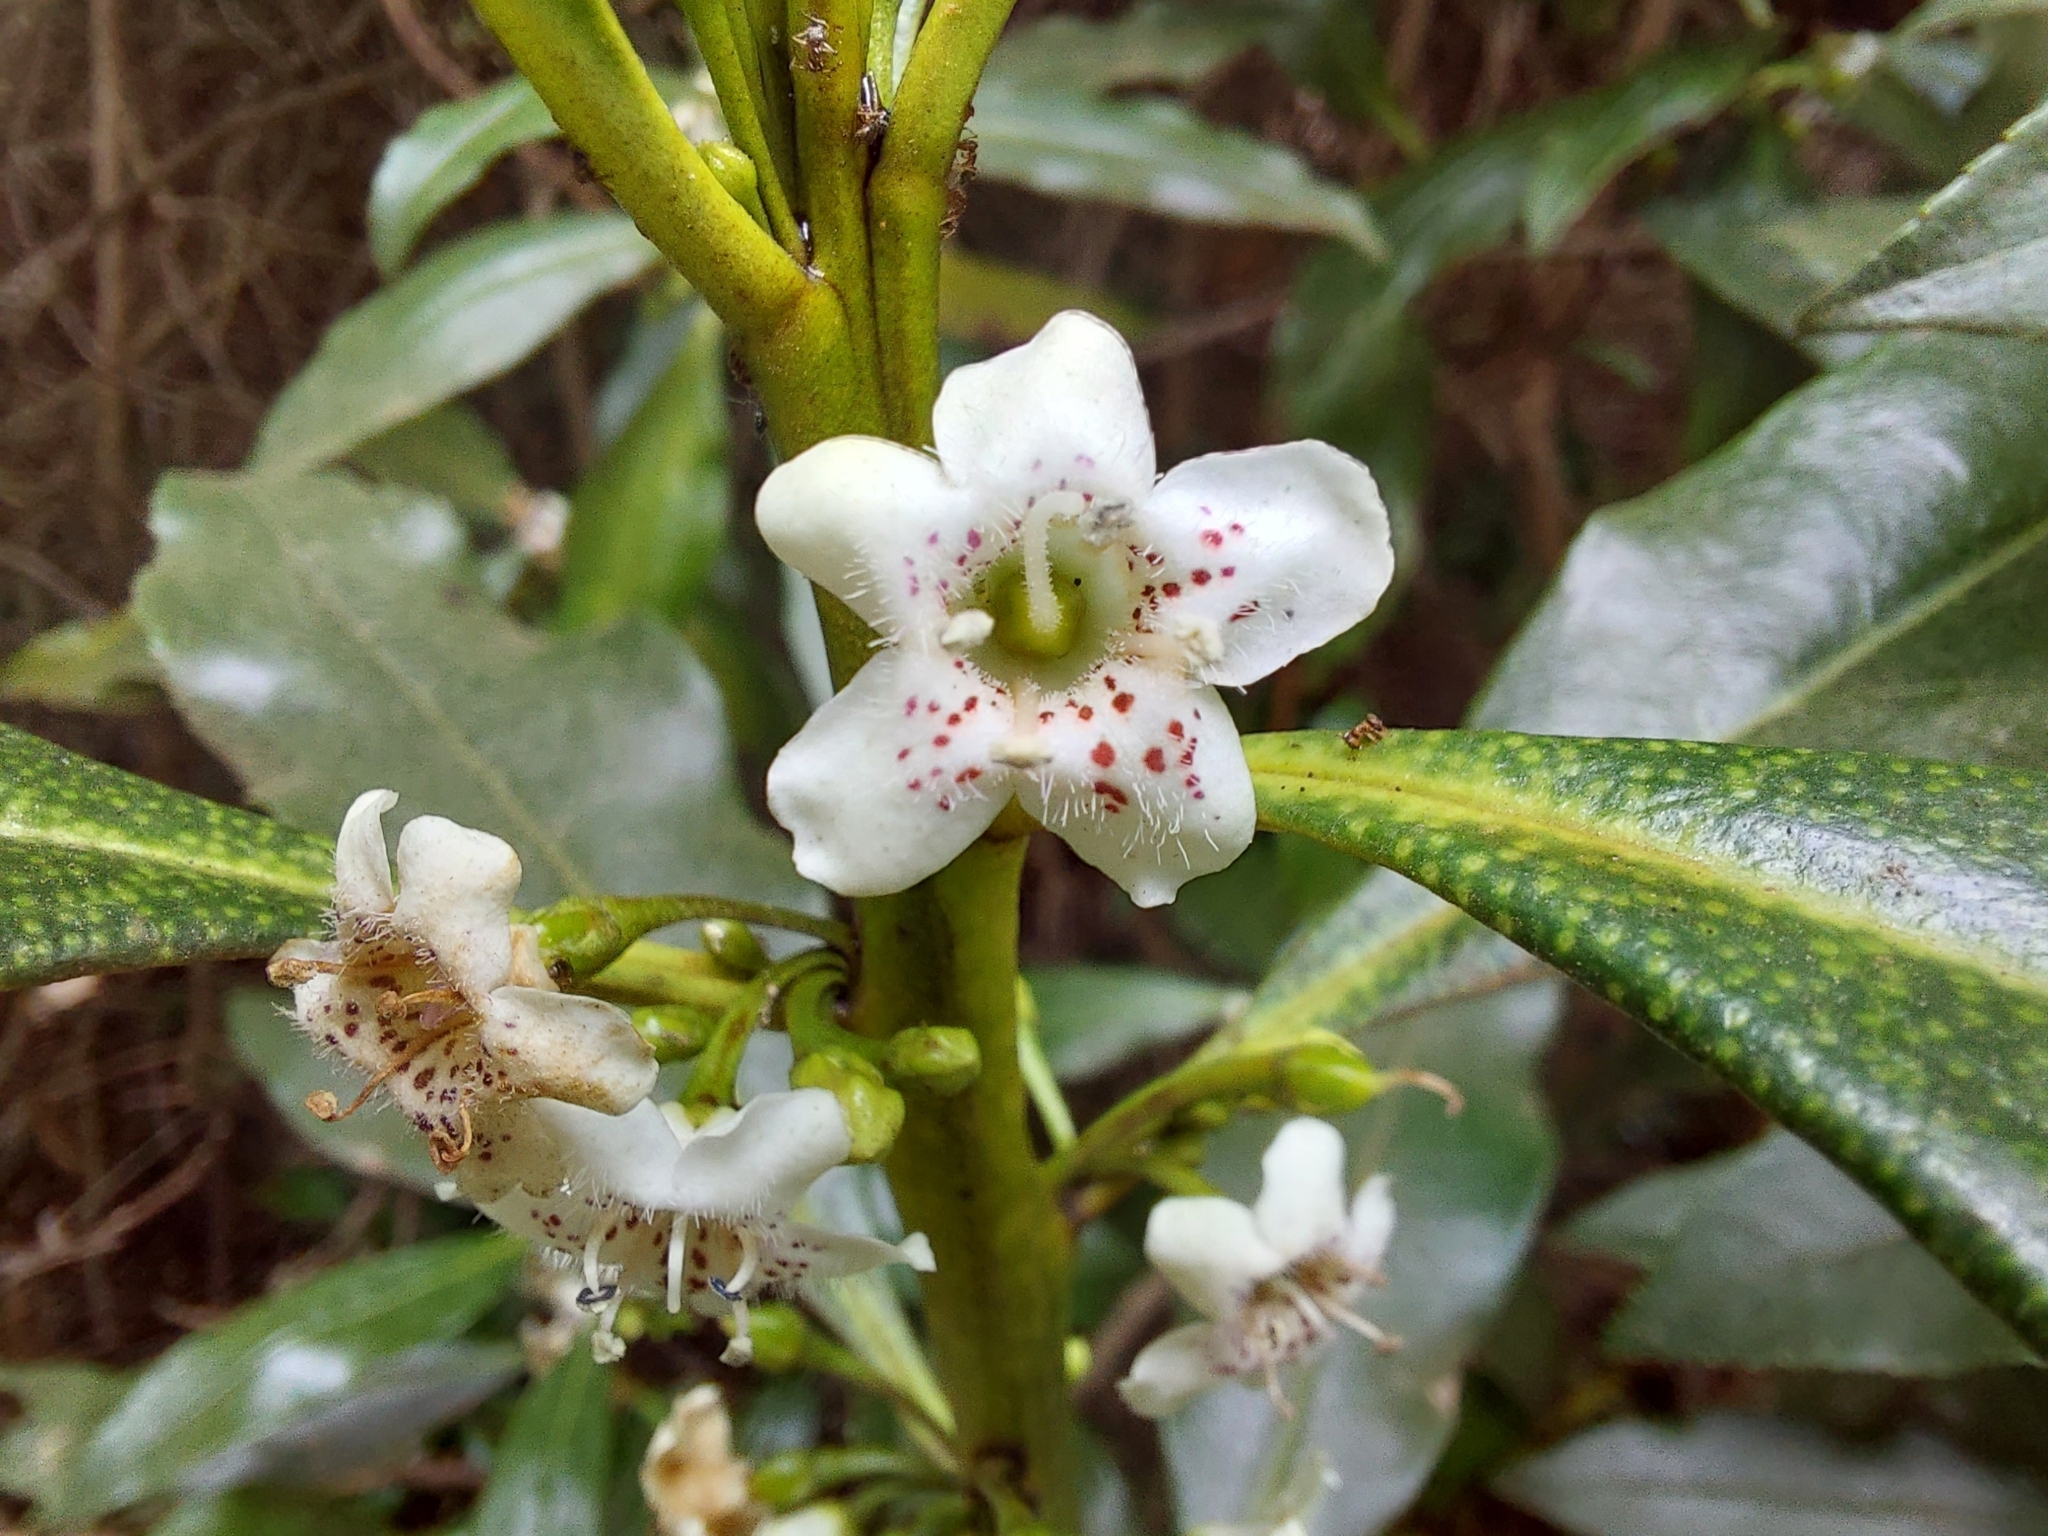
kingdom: Plantae
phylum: Tracheophyta
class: Magnoliopsida
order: Lamiales
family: Scrophulariaceae
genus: Myoporum
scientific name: Myoporum laetum
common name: Ngaio tree
